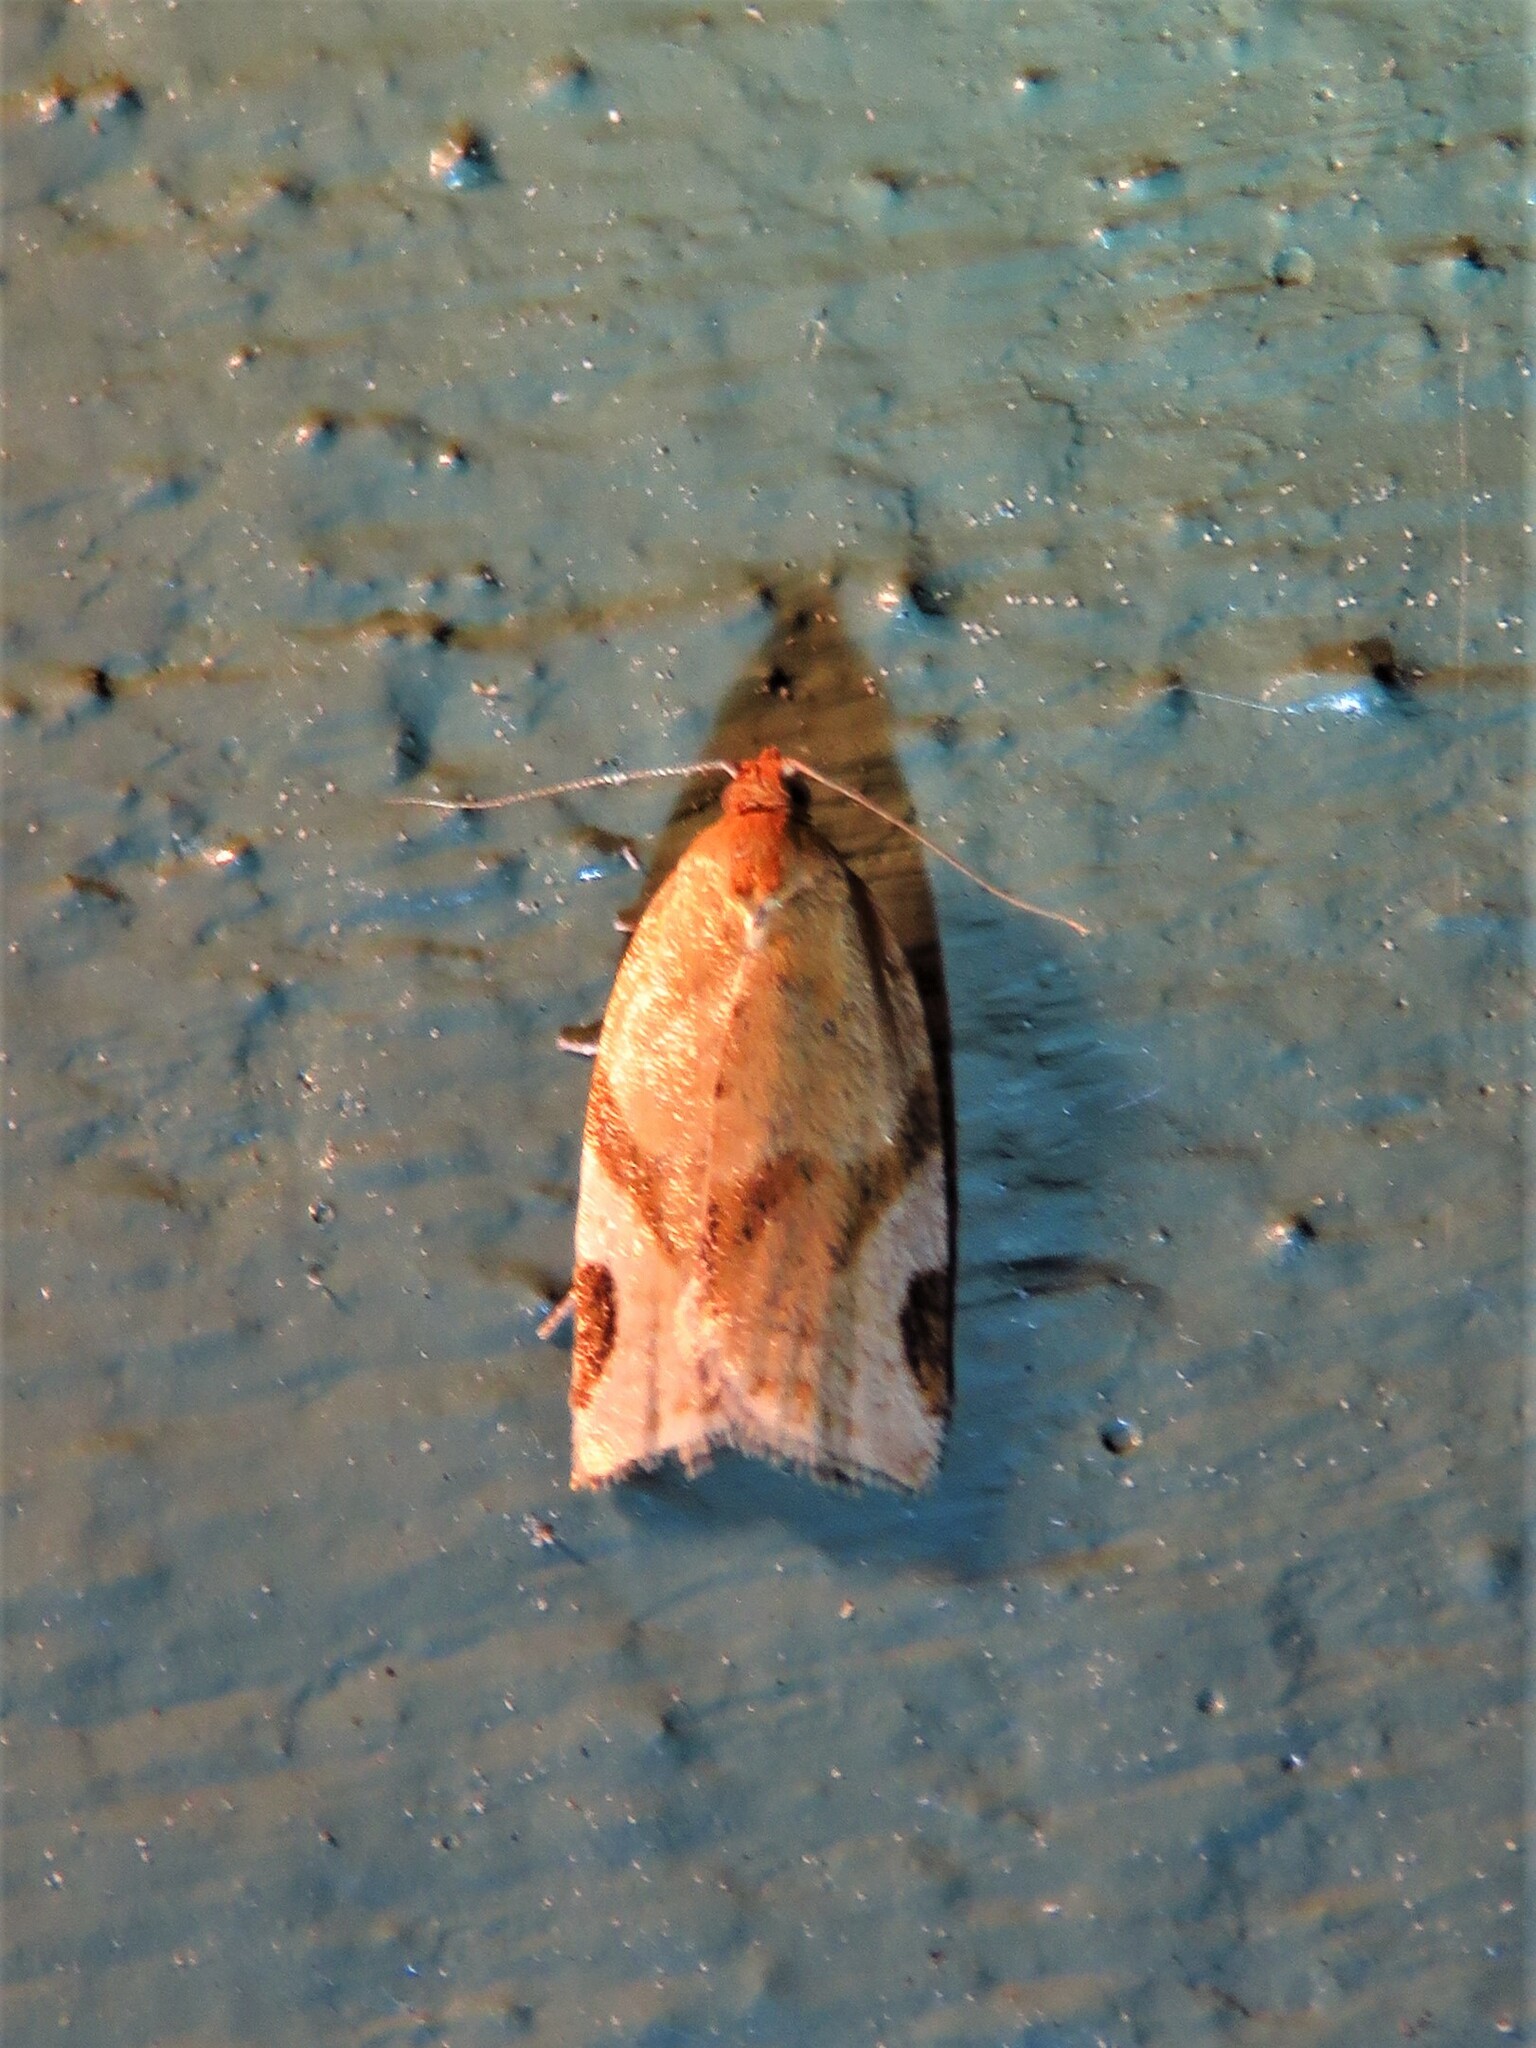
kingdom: Animalia
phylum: Arthropoda
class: Insecta
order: Lepidoptera
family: Tortricidae
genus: Paramesia
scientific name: Paramesia gnomana
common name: Small straw twist
